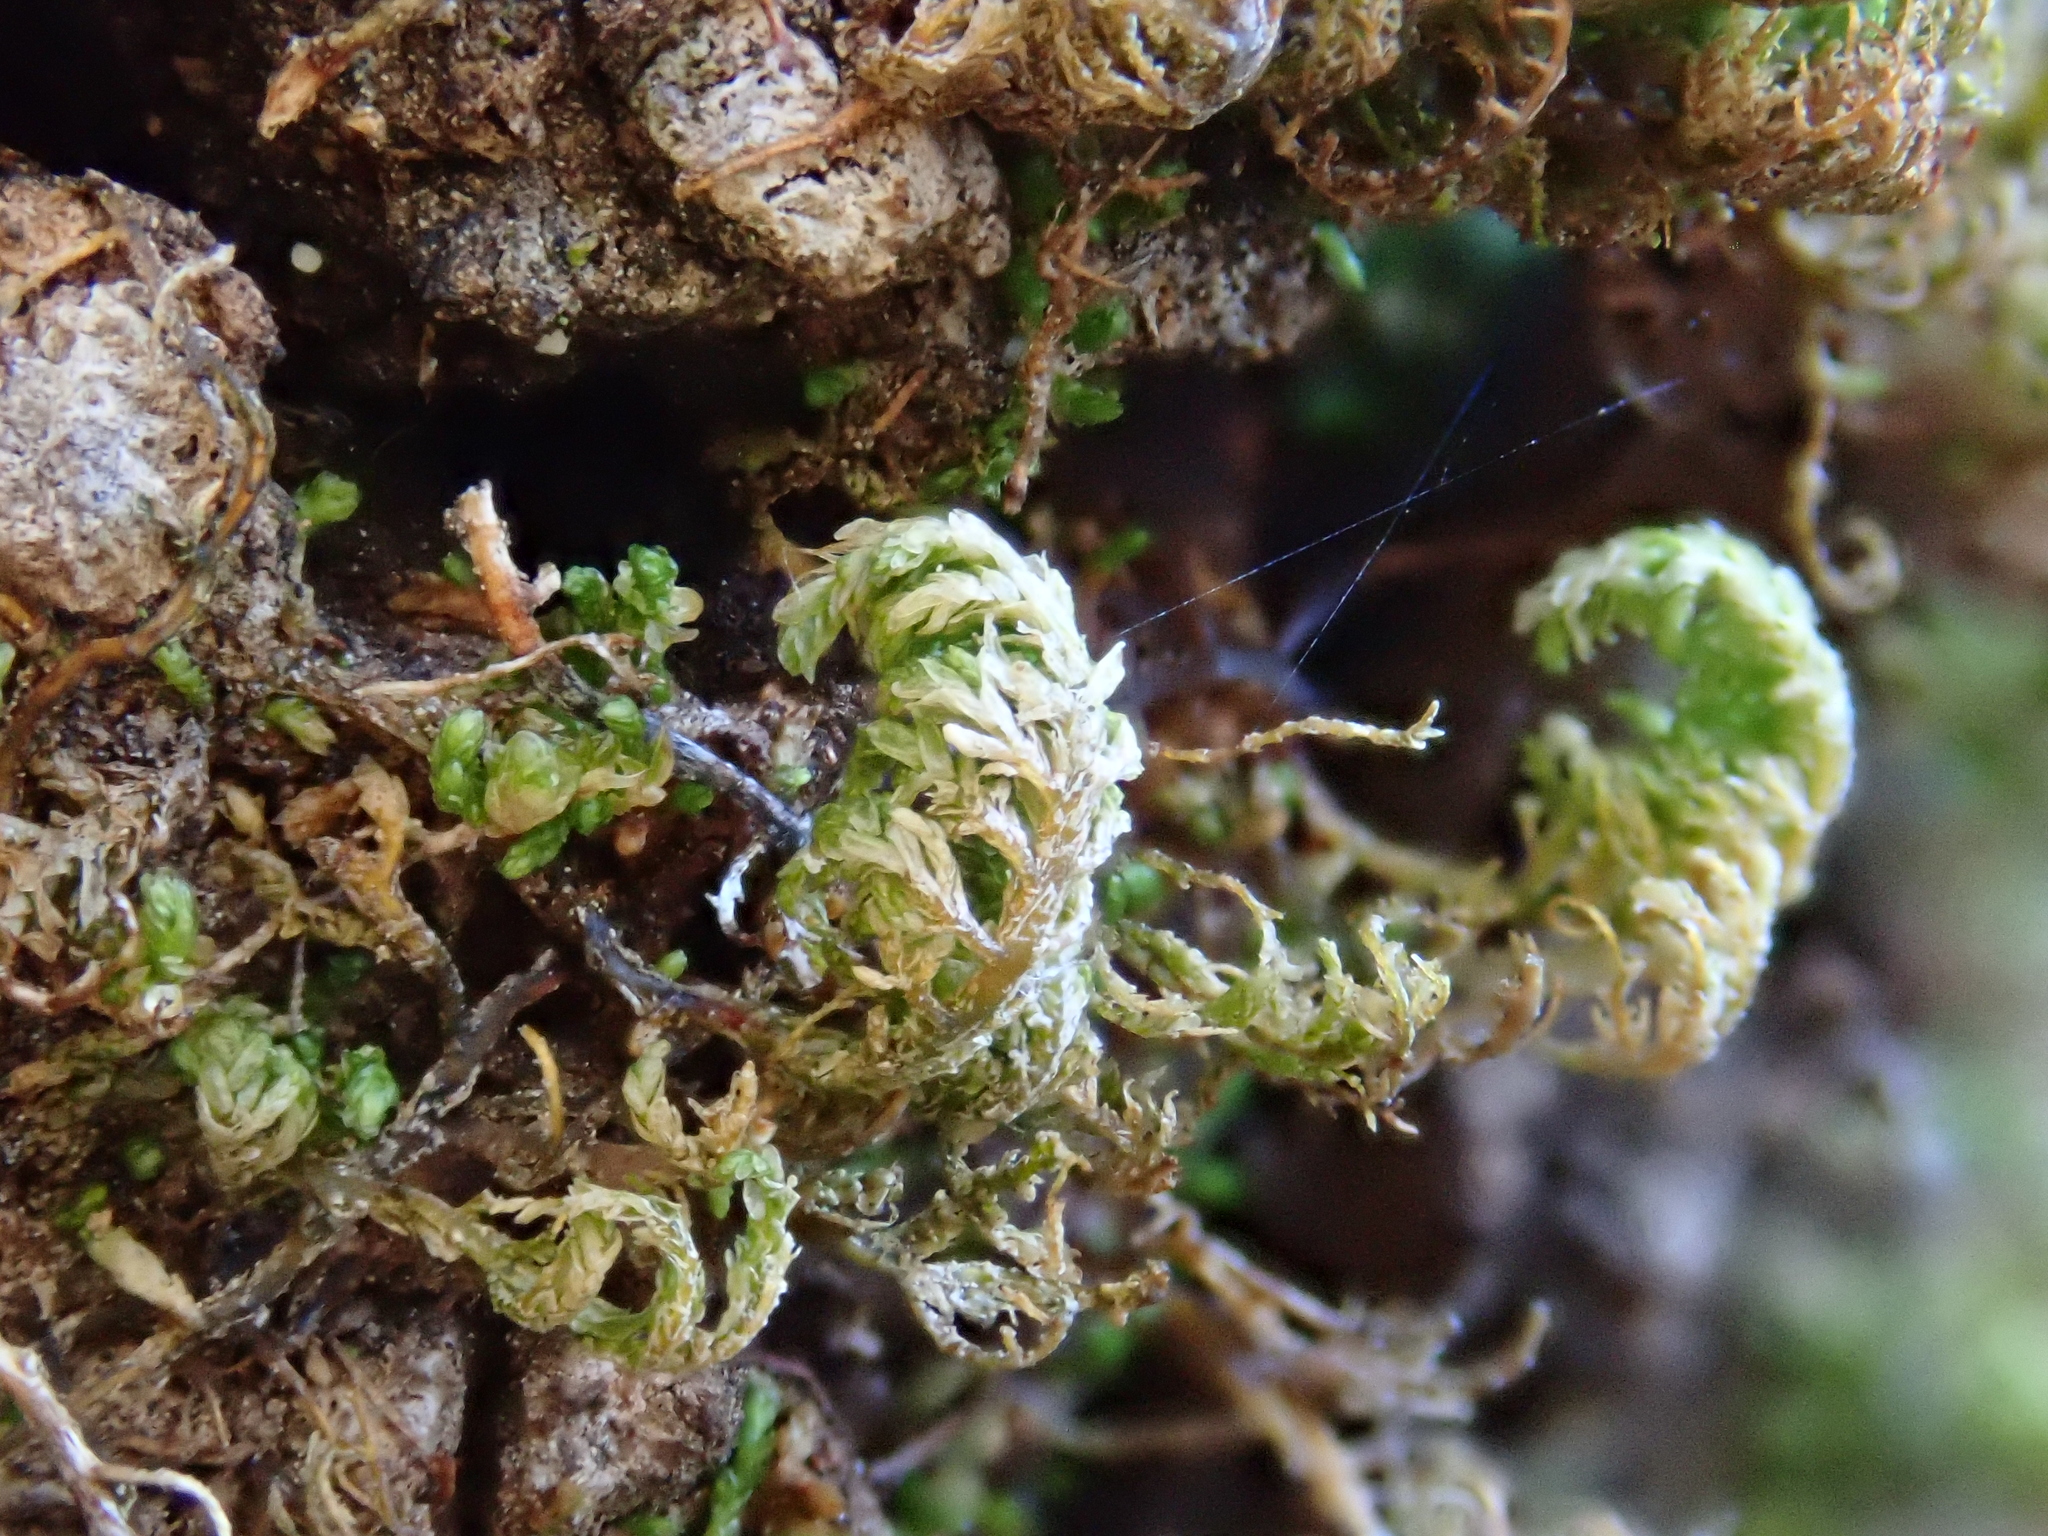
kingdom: Plantae
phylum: Bryophyta
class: Bryopsida
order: Hypnales
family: Neckeraceae
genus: Leptodon
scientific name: Leptodon smithii
